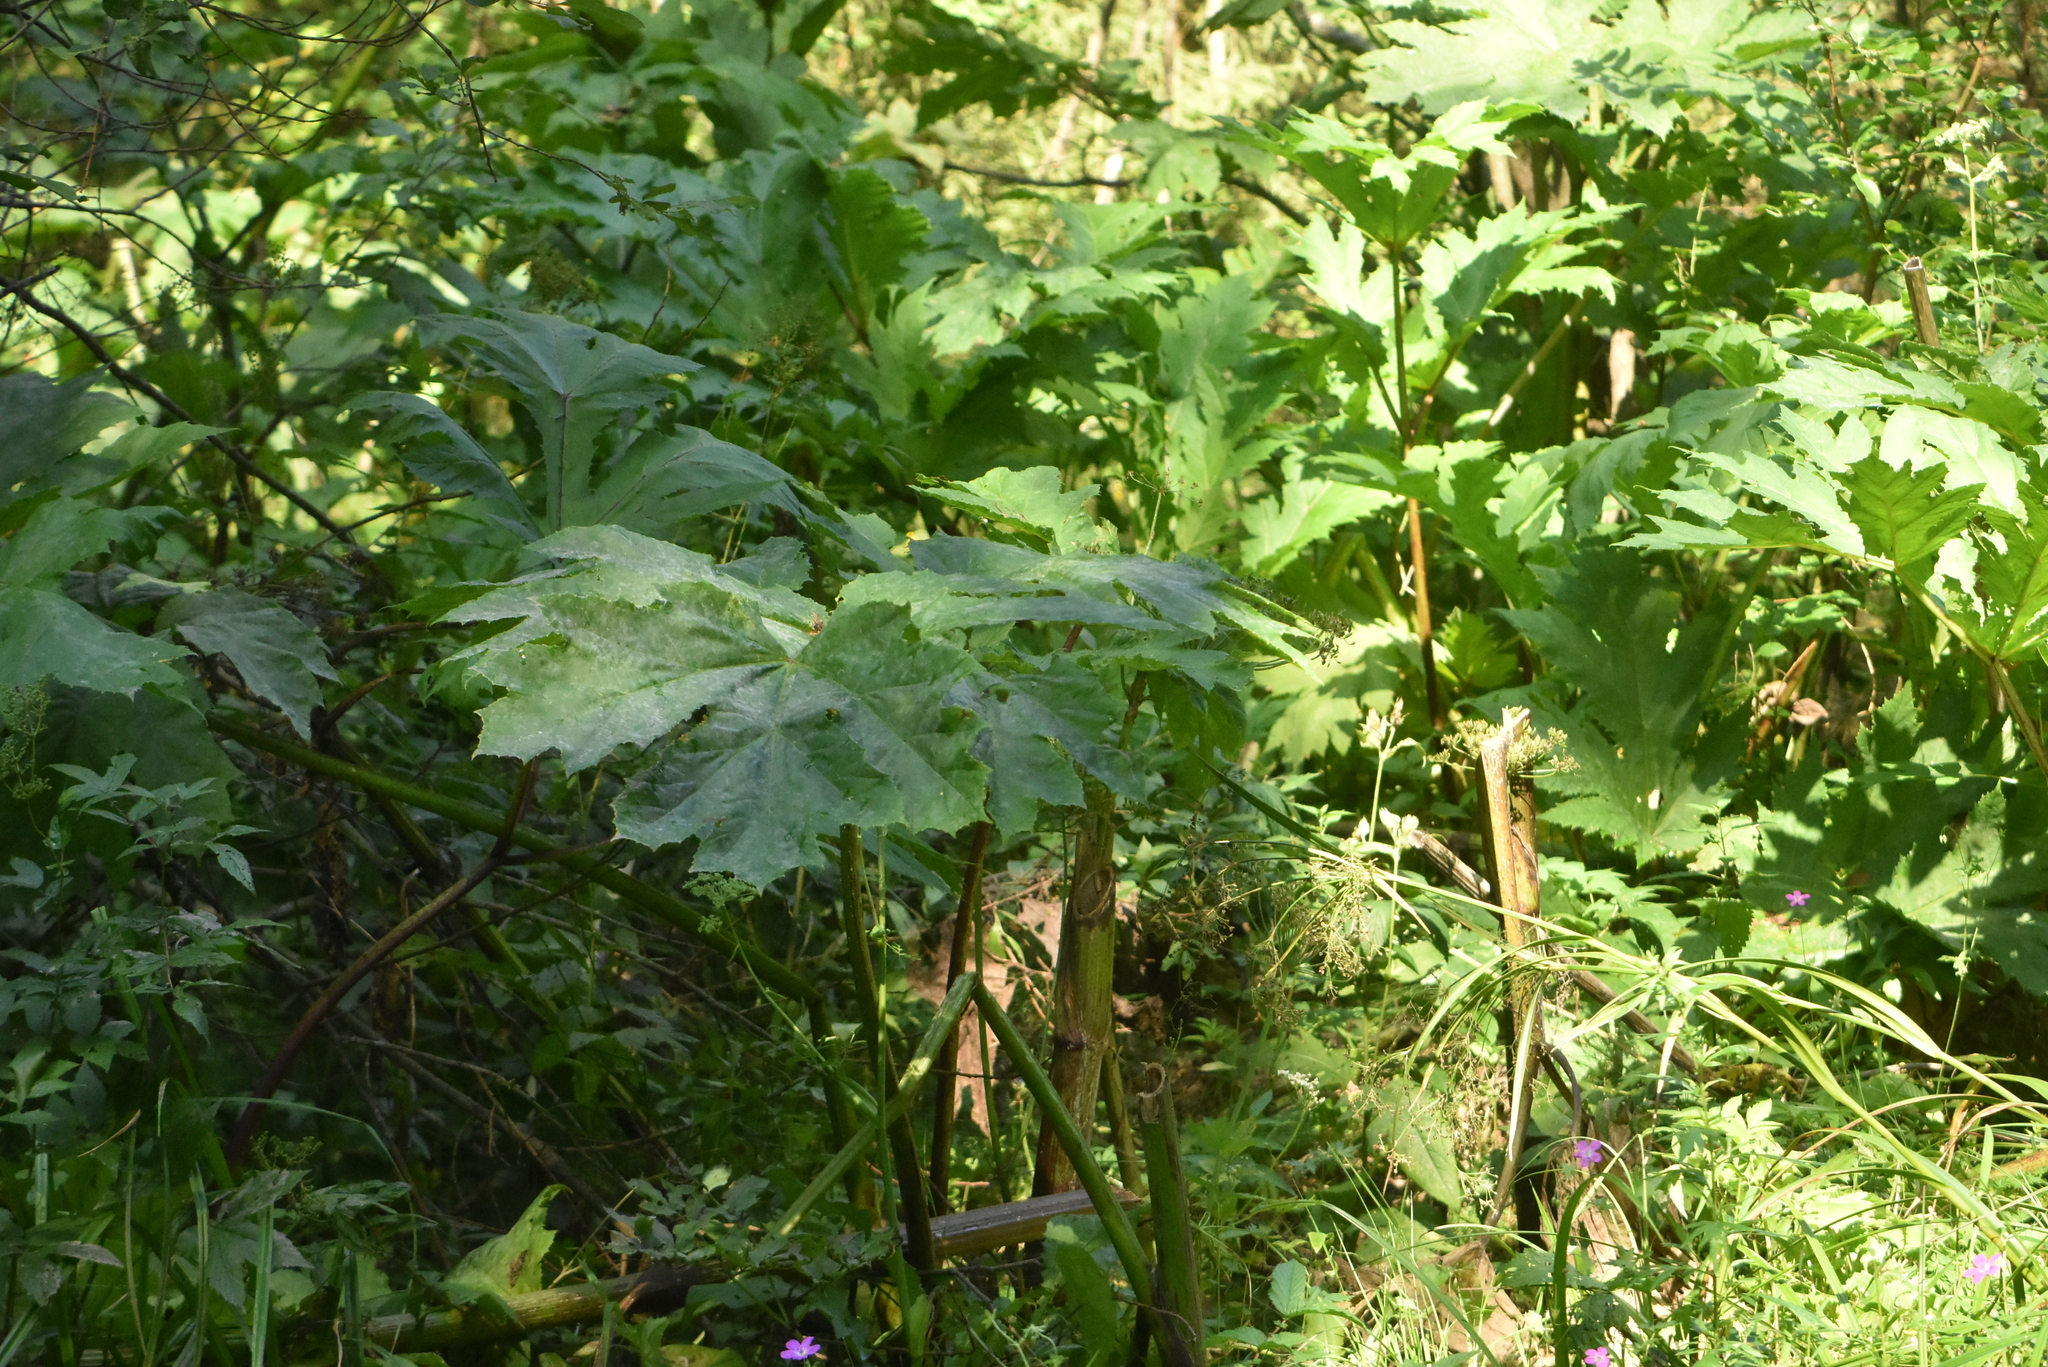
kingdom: Plantae
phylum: Tracheophyta
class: Magnoliopsida
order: Apiales
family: Apiaceae
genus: Heracleum
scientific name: Heracleum sosnowskyi
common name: Sosnowsky's hogweed
